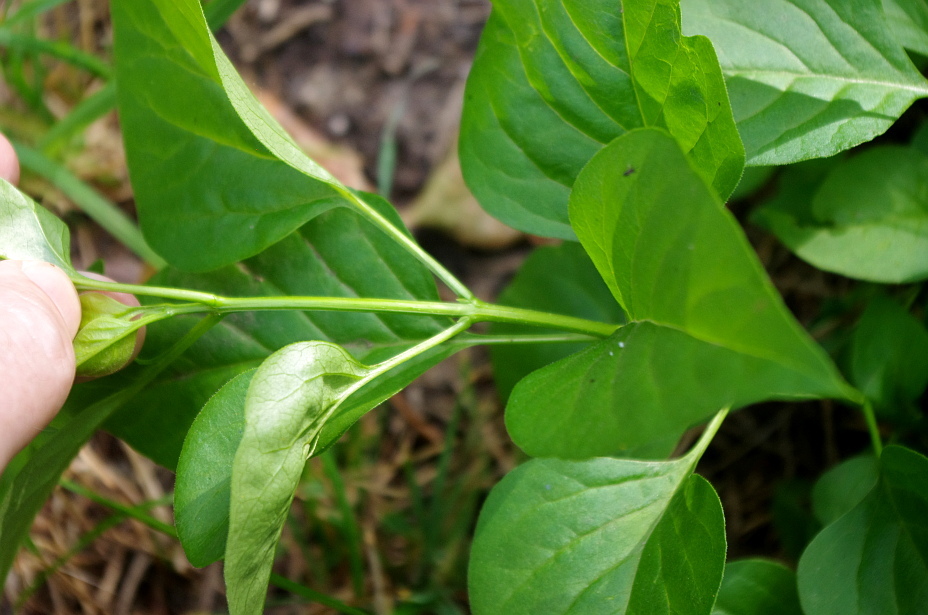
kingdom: Plantae
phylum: Tracheophyta
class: Magnoliopsida
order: Lamiales
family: Oleaceae
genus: Syringa
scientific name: Syringa vulgaris
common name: Common lilac
